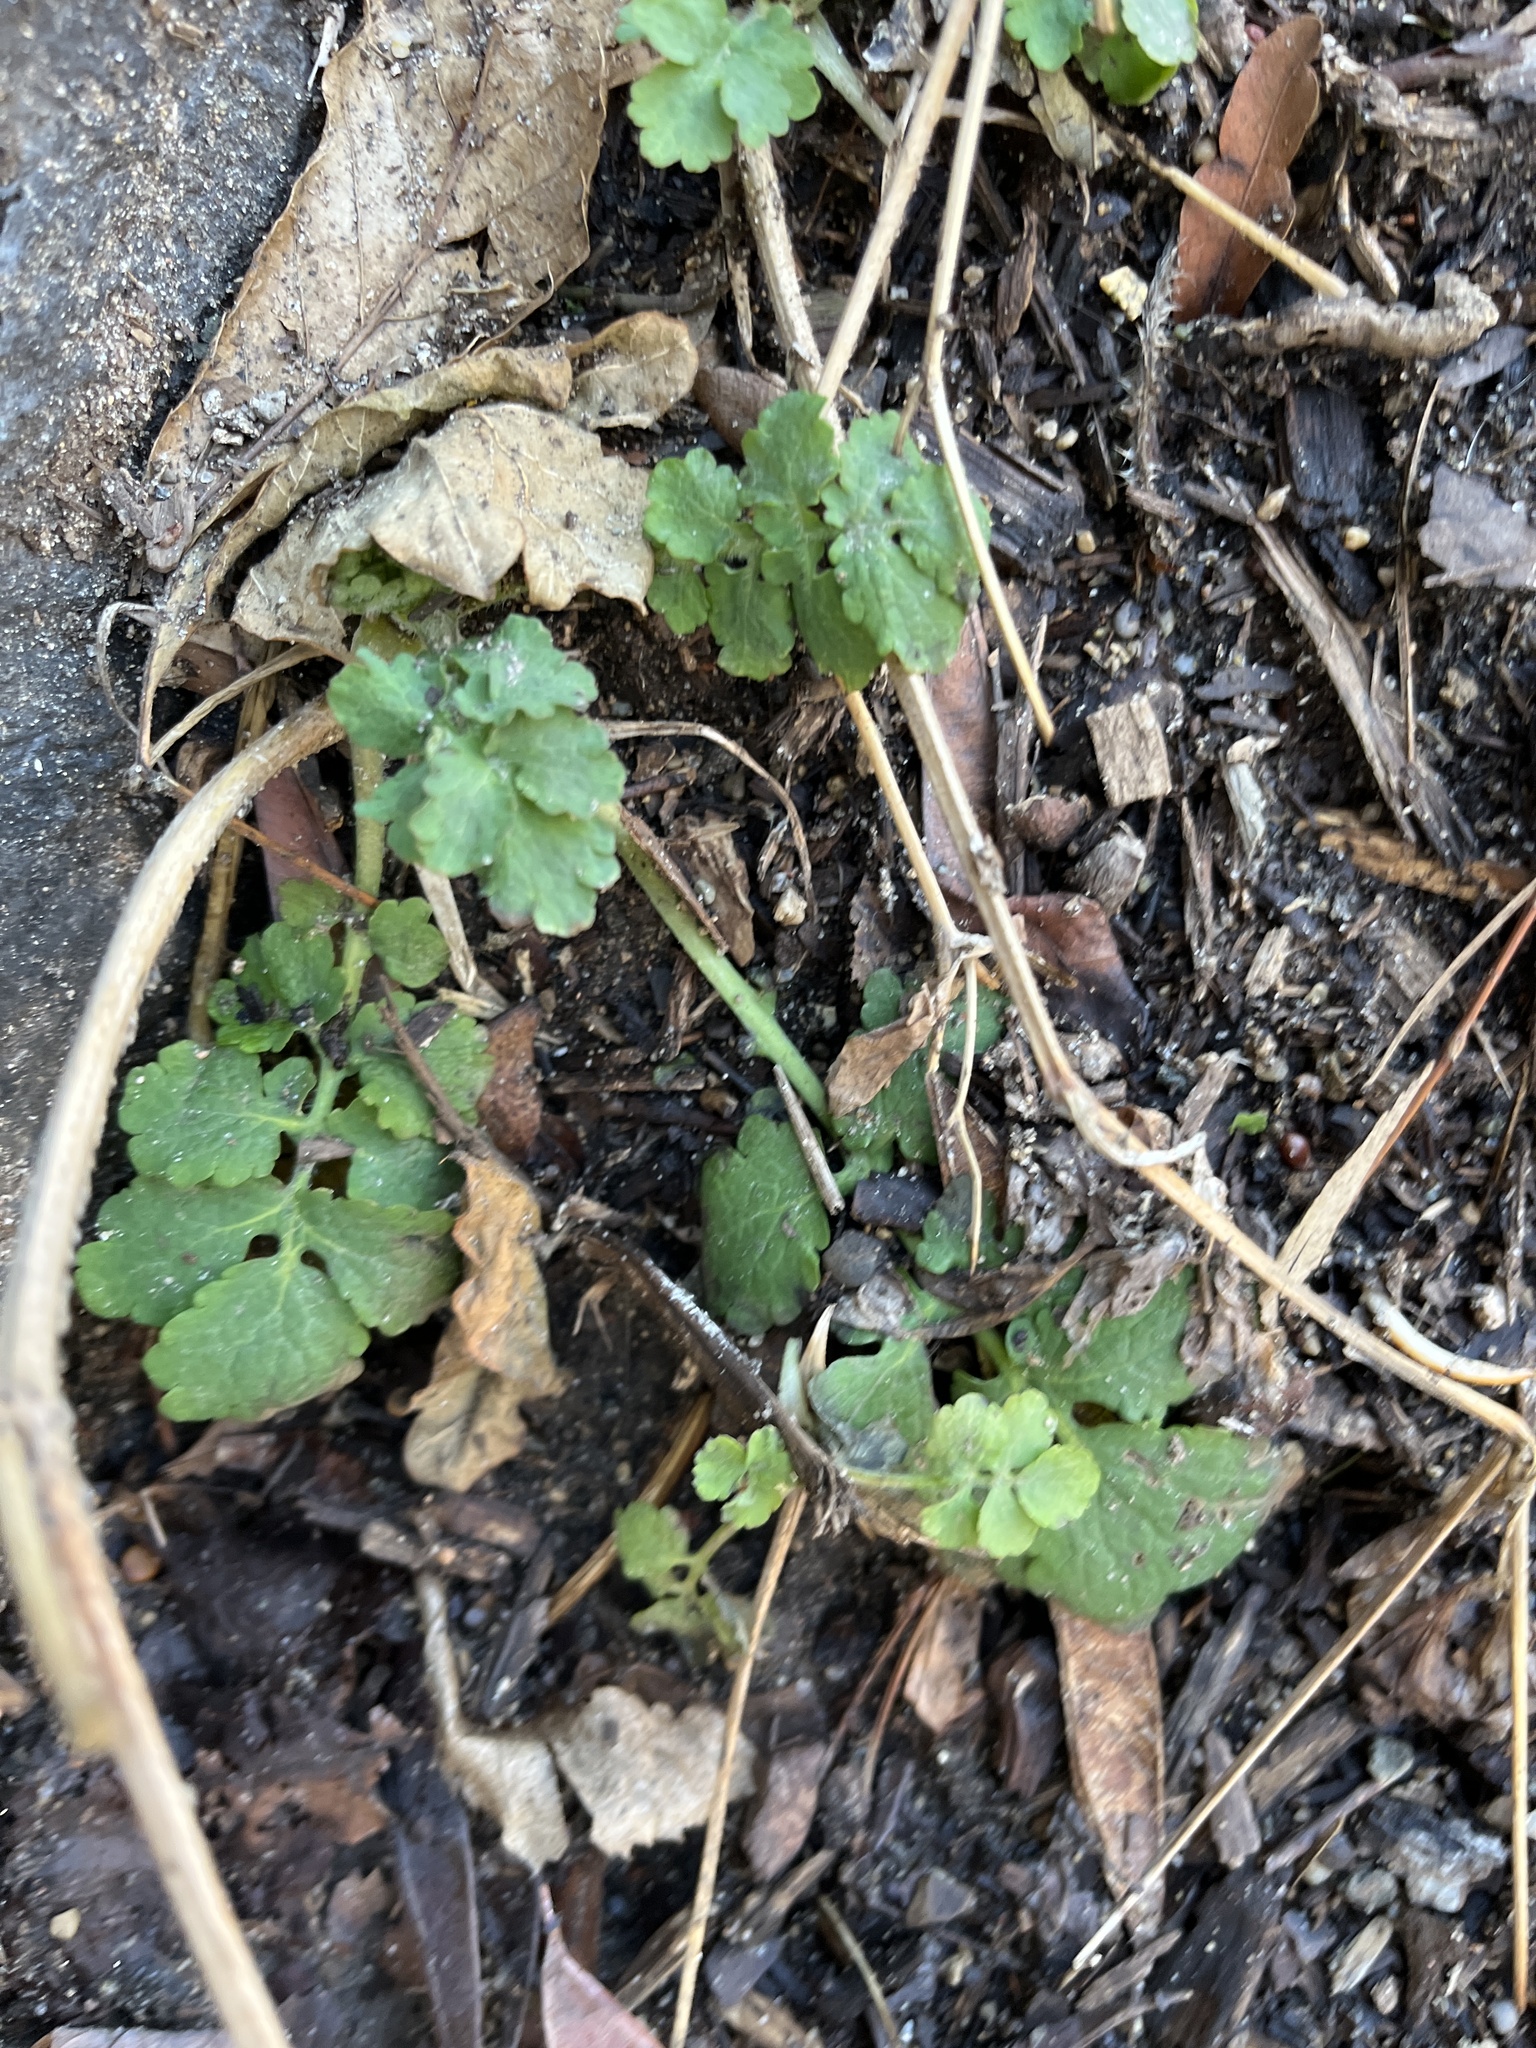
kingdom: Plantae
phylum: Tracheophyta
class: Magnoliopsida
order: Ranunculales
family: Papaveraceae
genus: Chelidonium
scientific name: Chelidonium majus
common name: Greater celandine
